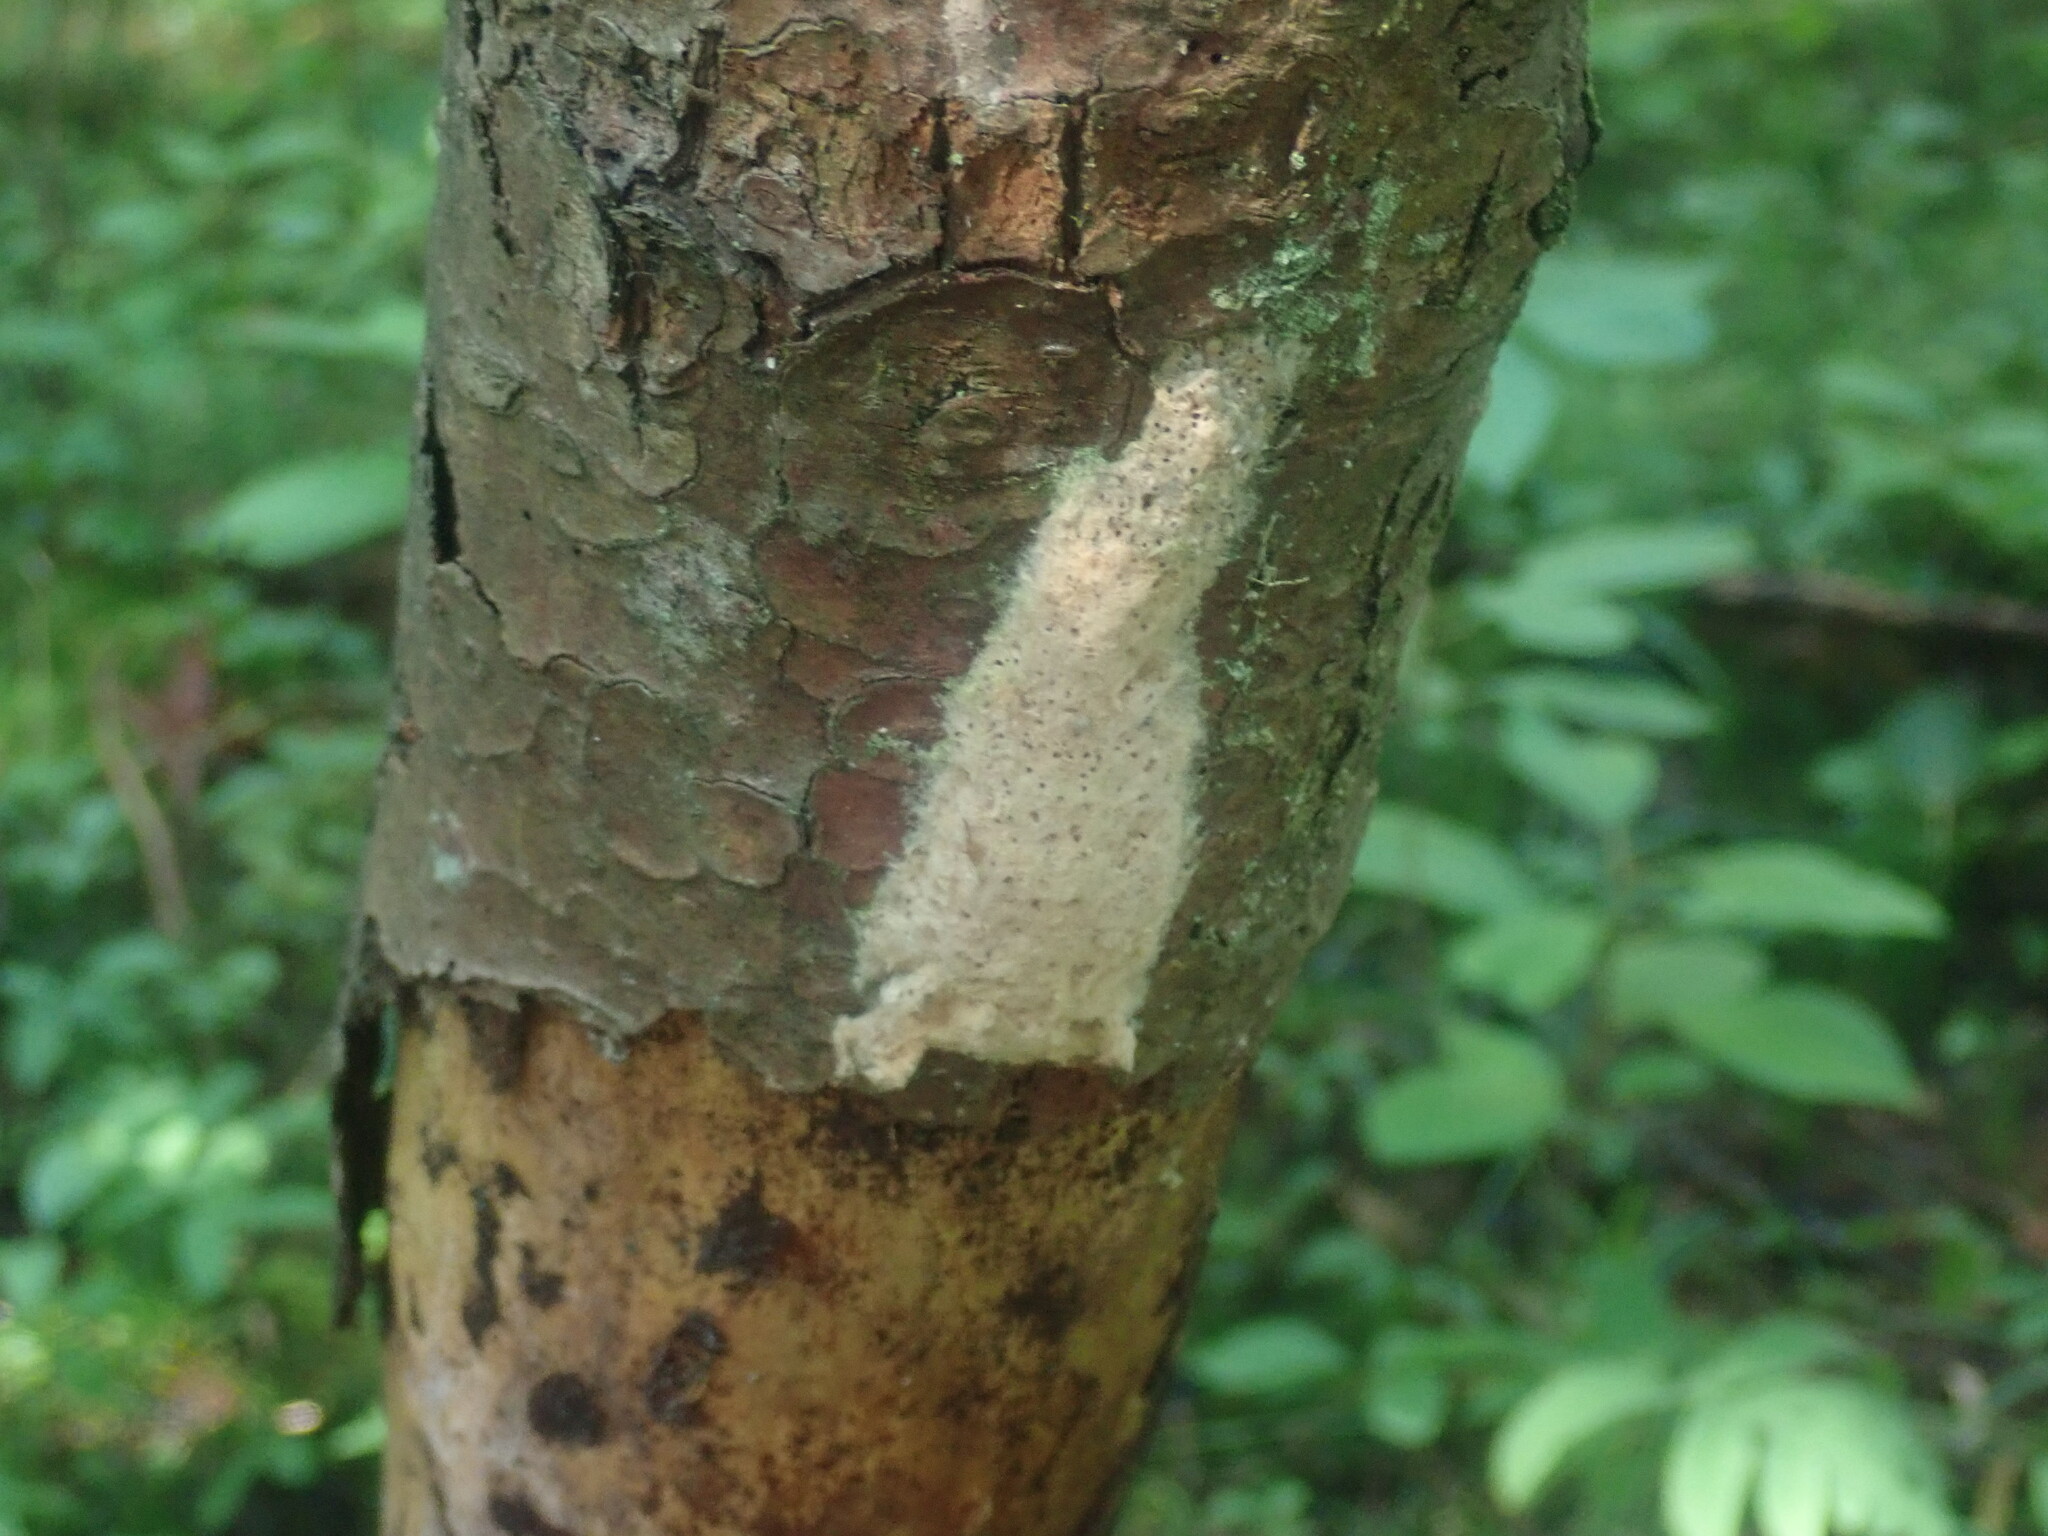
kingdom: Animalia
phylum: Arthropoda
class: Insecta
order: Lepidoptera
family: Erebidae
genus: Lymantria
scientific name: Lymantria dispar
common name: Gypsy moth
